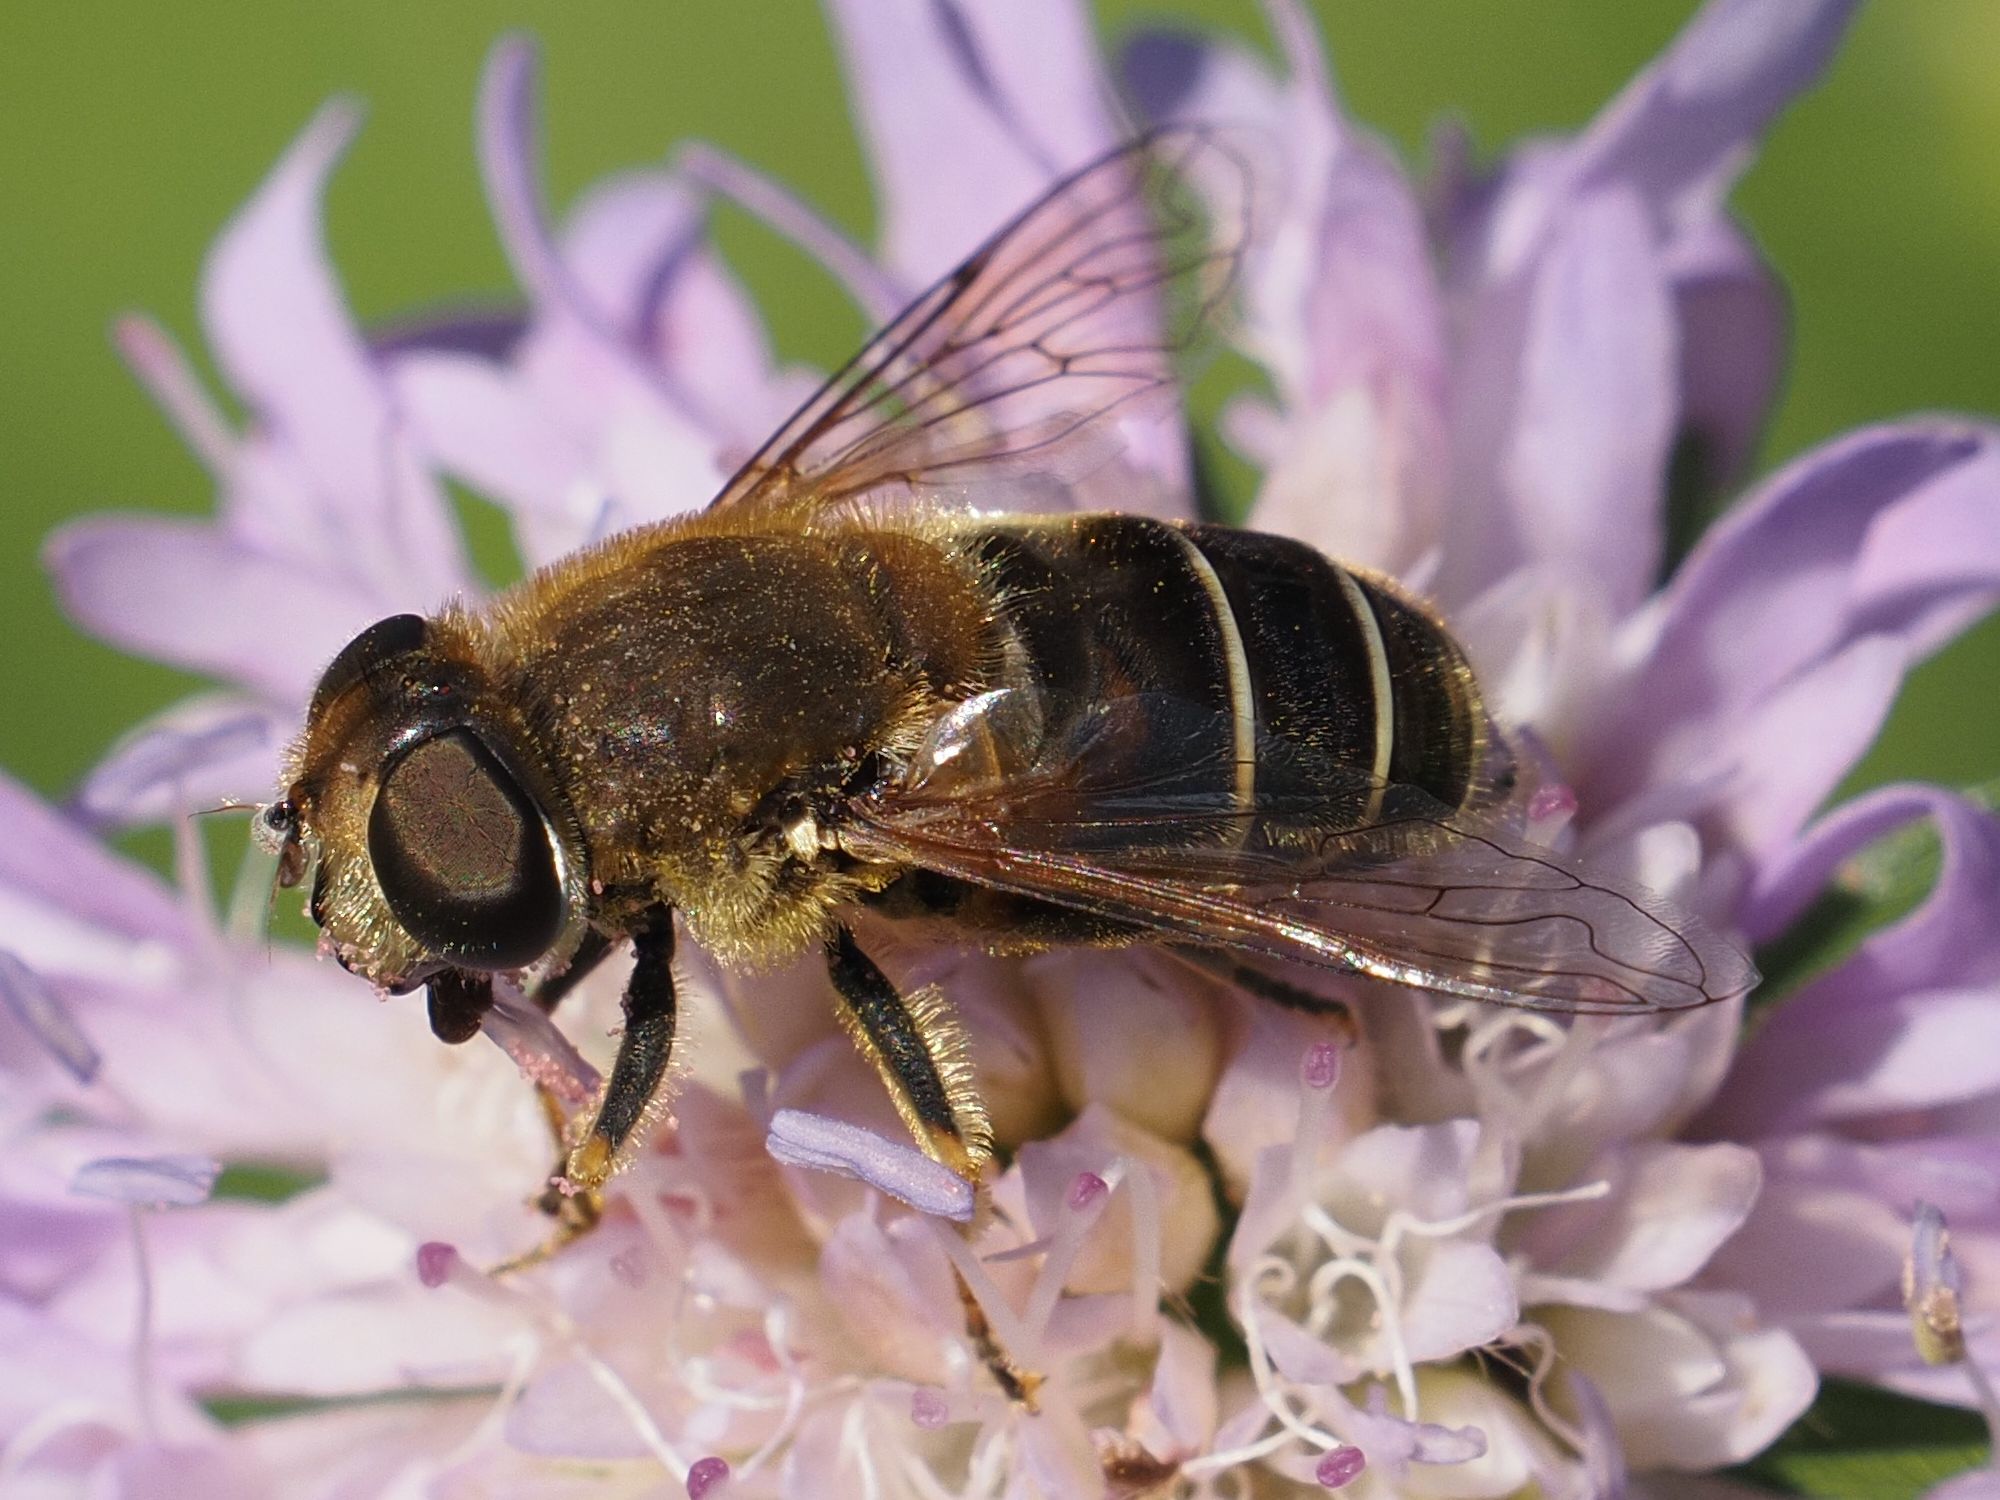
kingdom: Animalia
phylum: Arthropoda
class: Insecta
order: Diptera
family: Syrphidae
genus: Eristalis
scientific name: Eristalis nemorum
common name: Orange-spined drone fly
